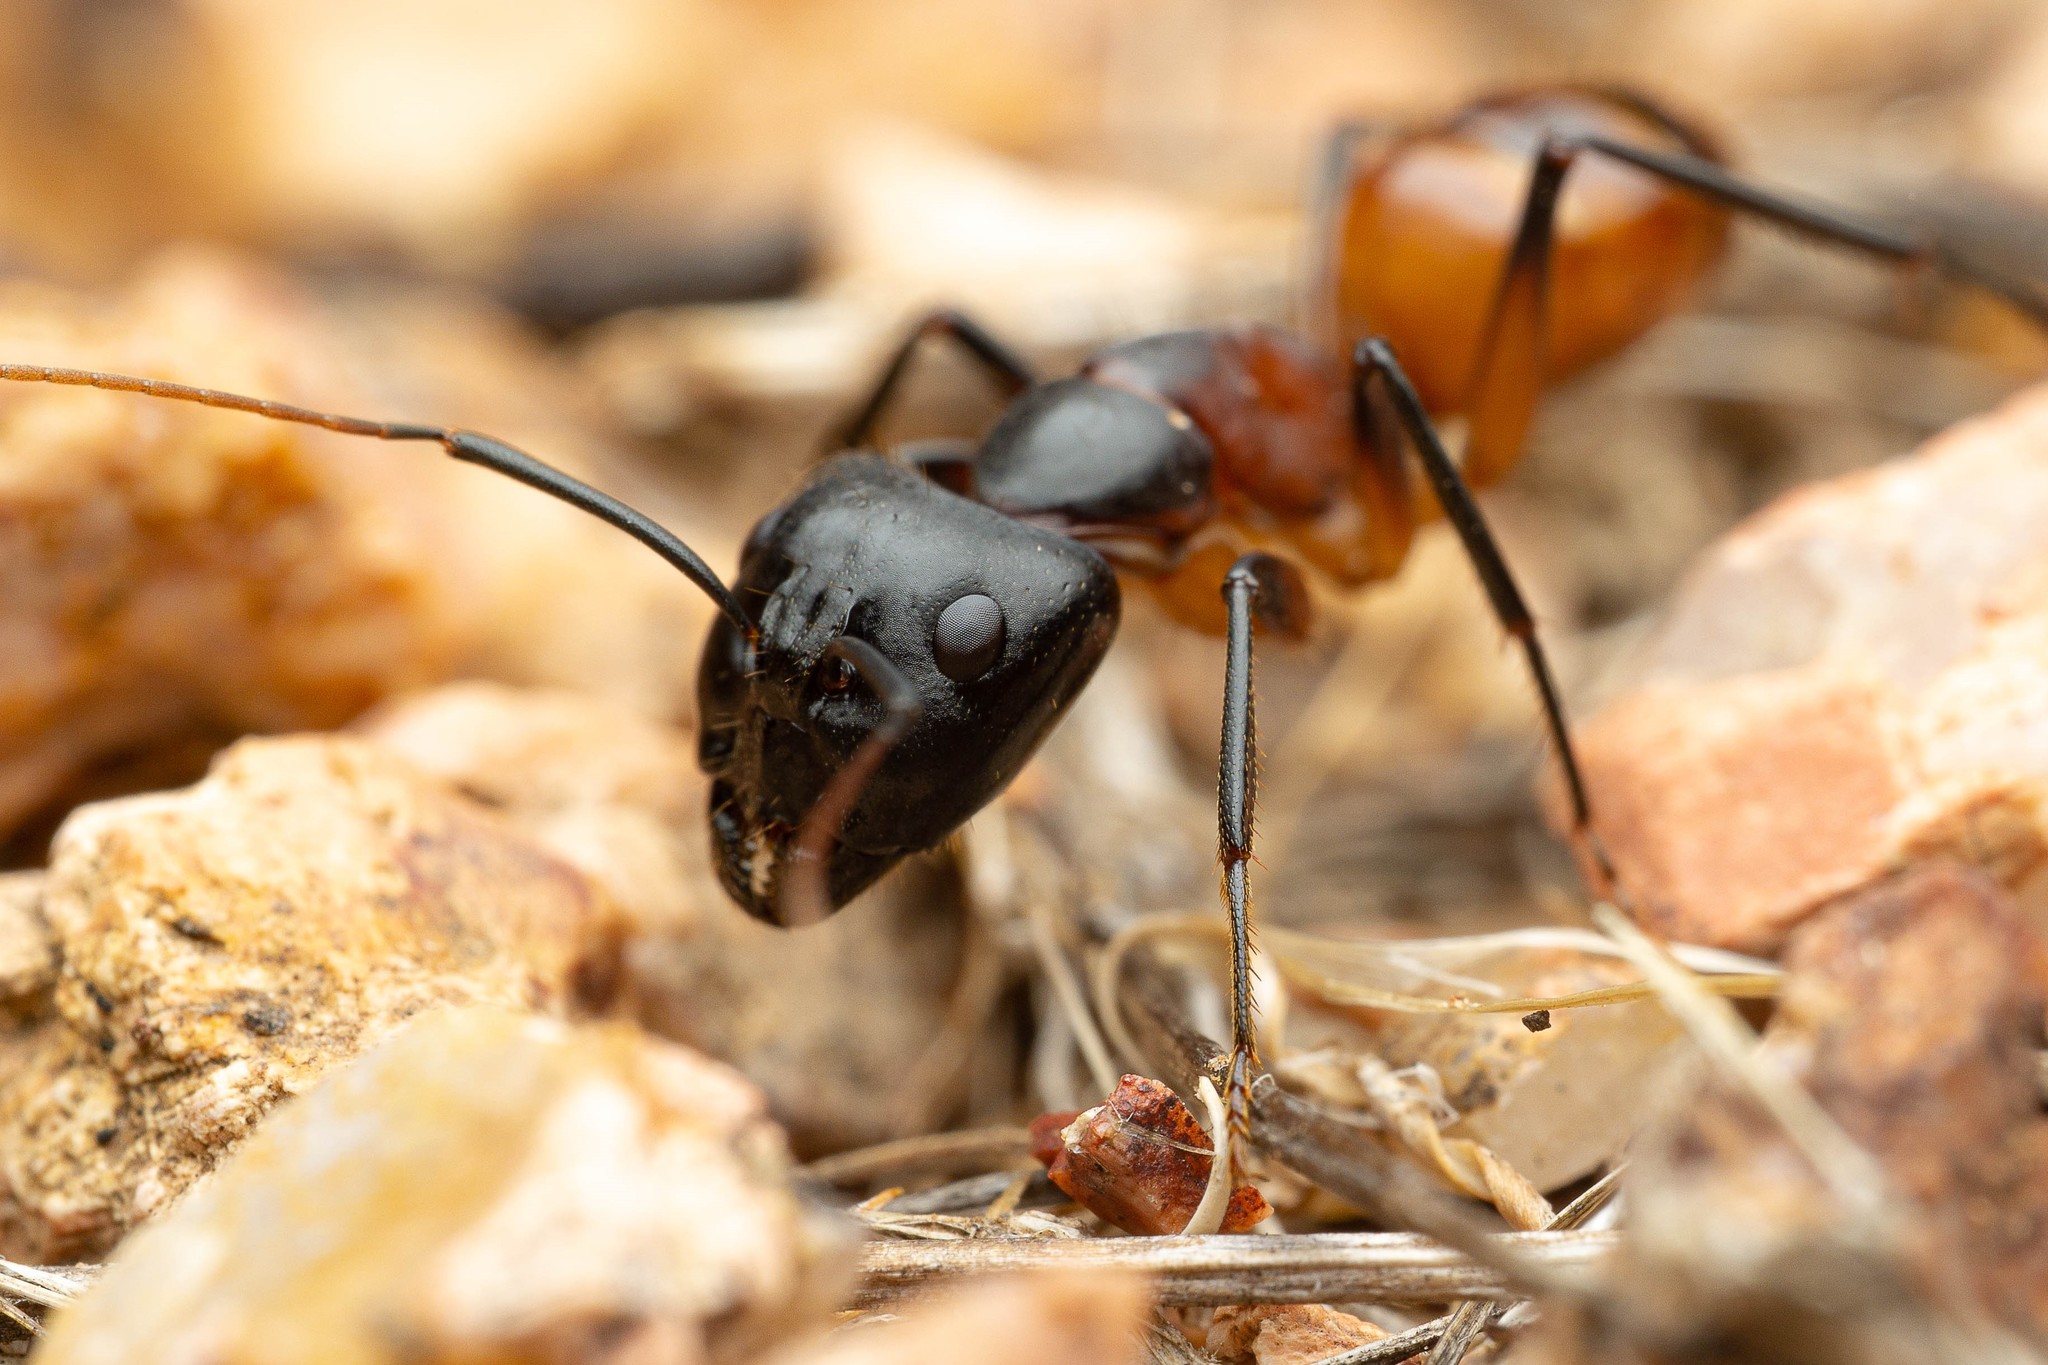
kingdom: Animalia
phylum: Arthropoda
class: Insecta
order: Hymenoptera
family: Formicidae
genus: Camponotus
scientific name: Camponotus ocreatus
